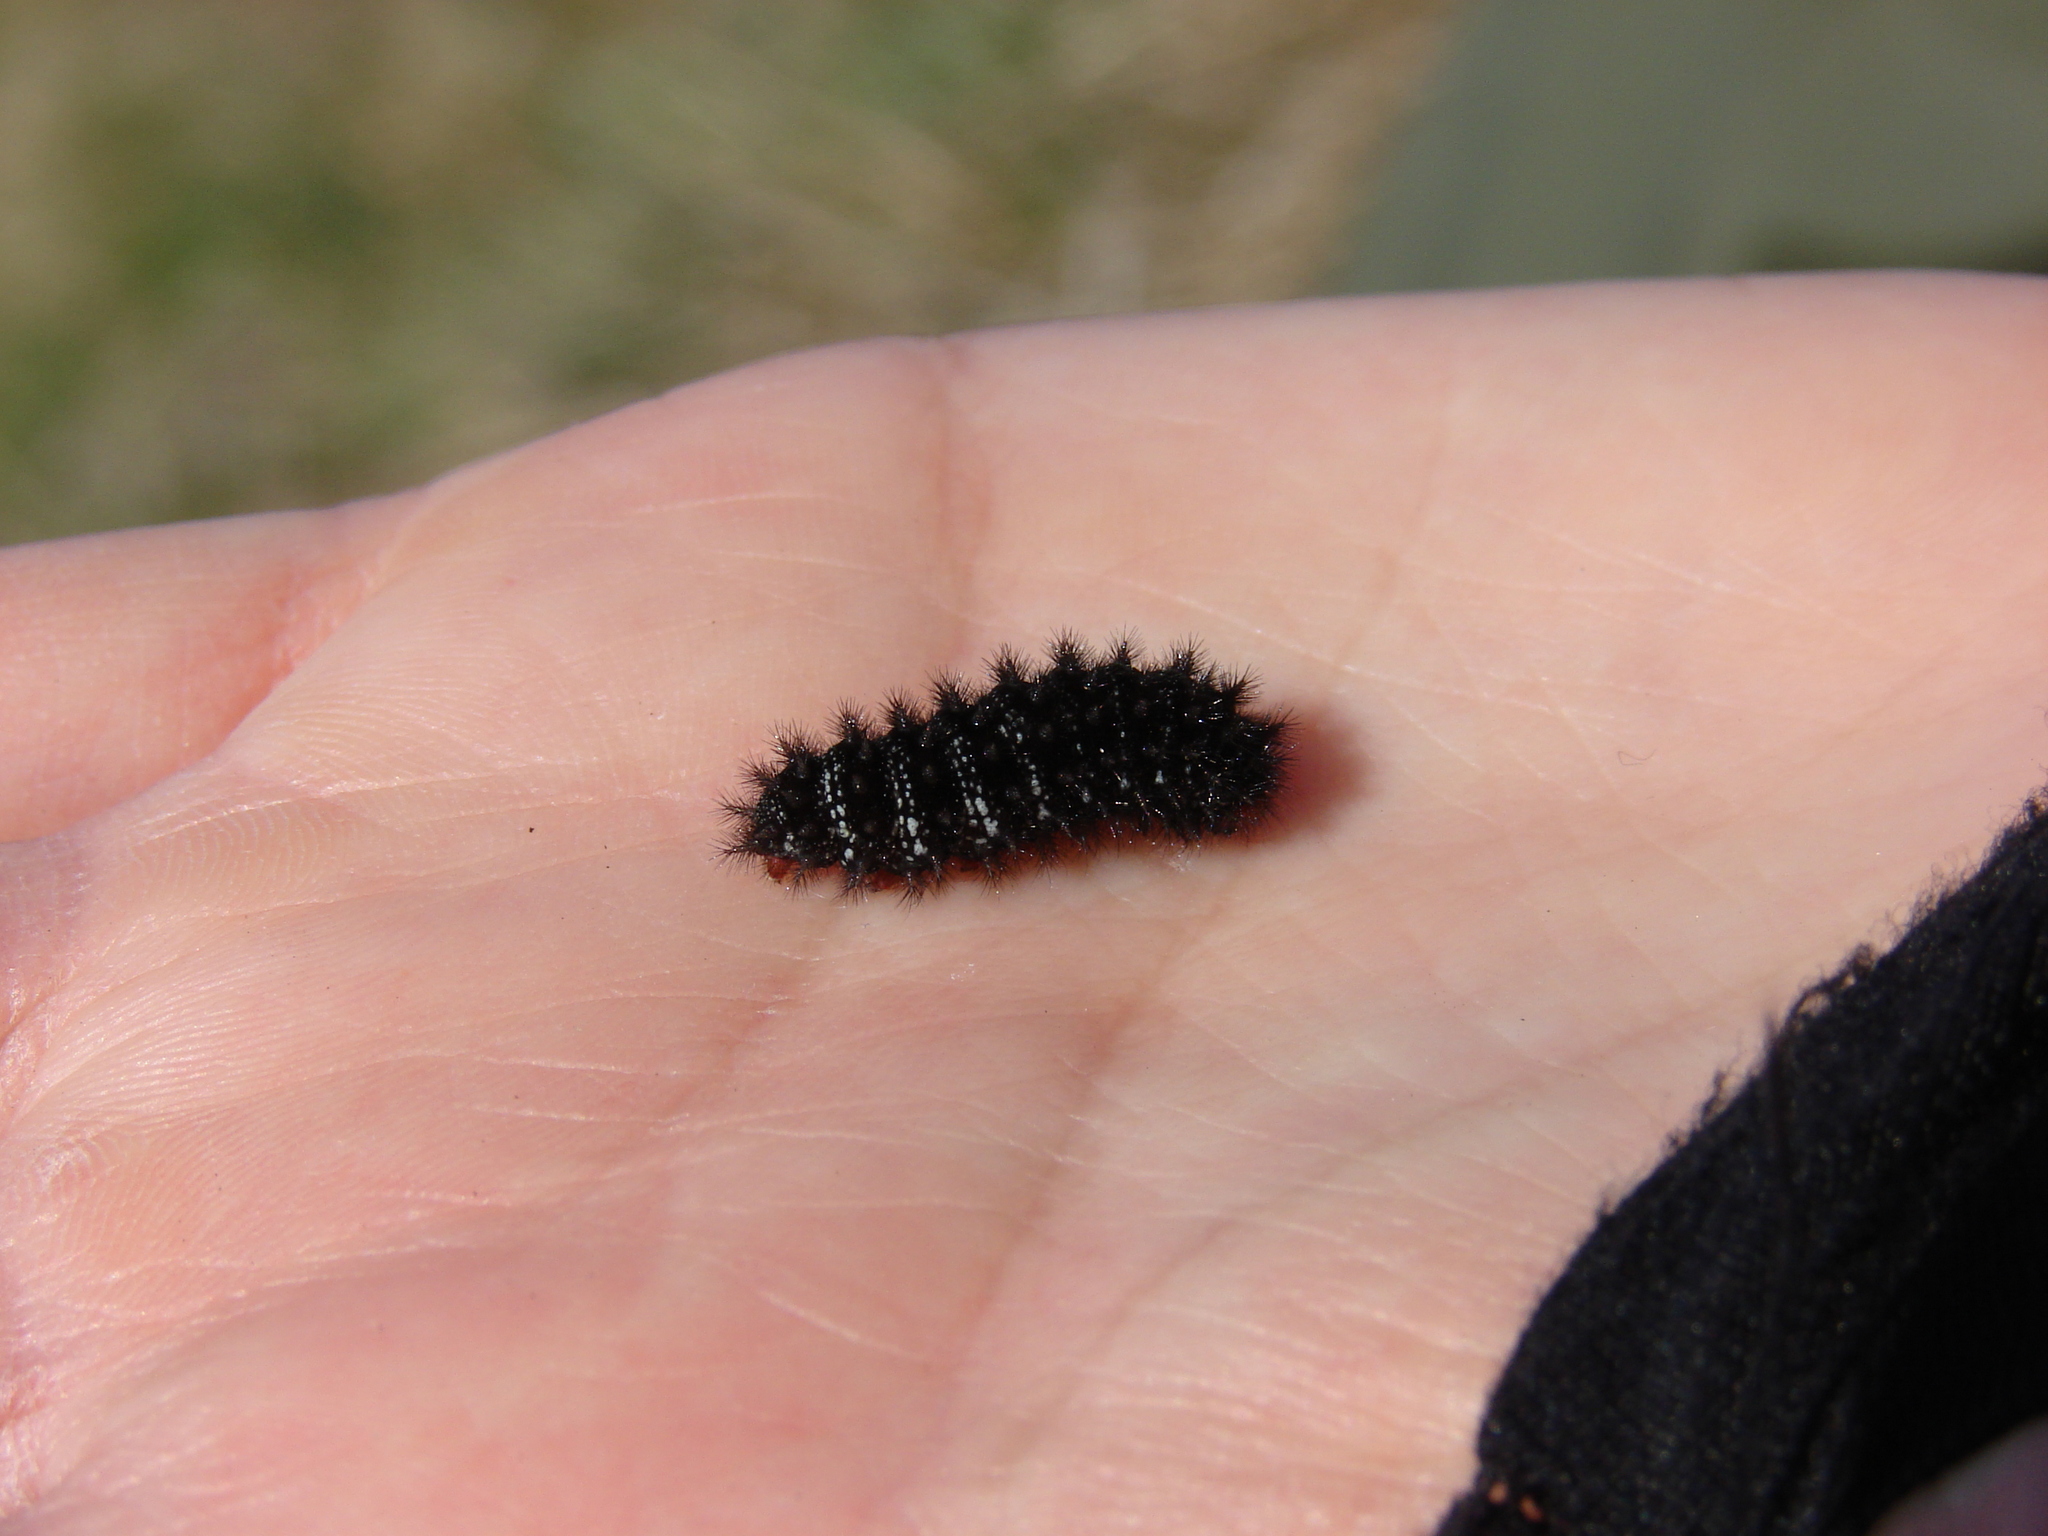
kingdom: Animalia
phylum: Arthropoda
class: Insecta
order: Lepidoptera
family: Nymphalidae
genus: Melitaea
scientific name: Melitaea cinxia
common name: Glanville fritillary
